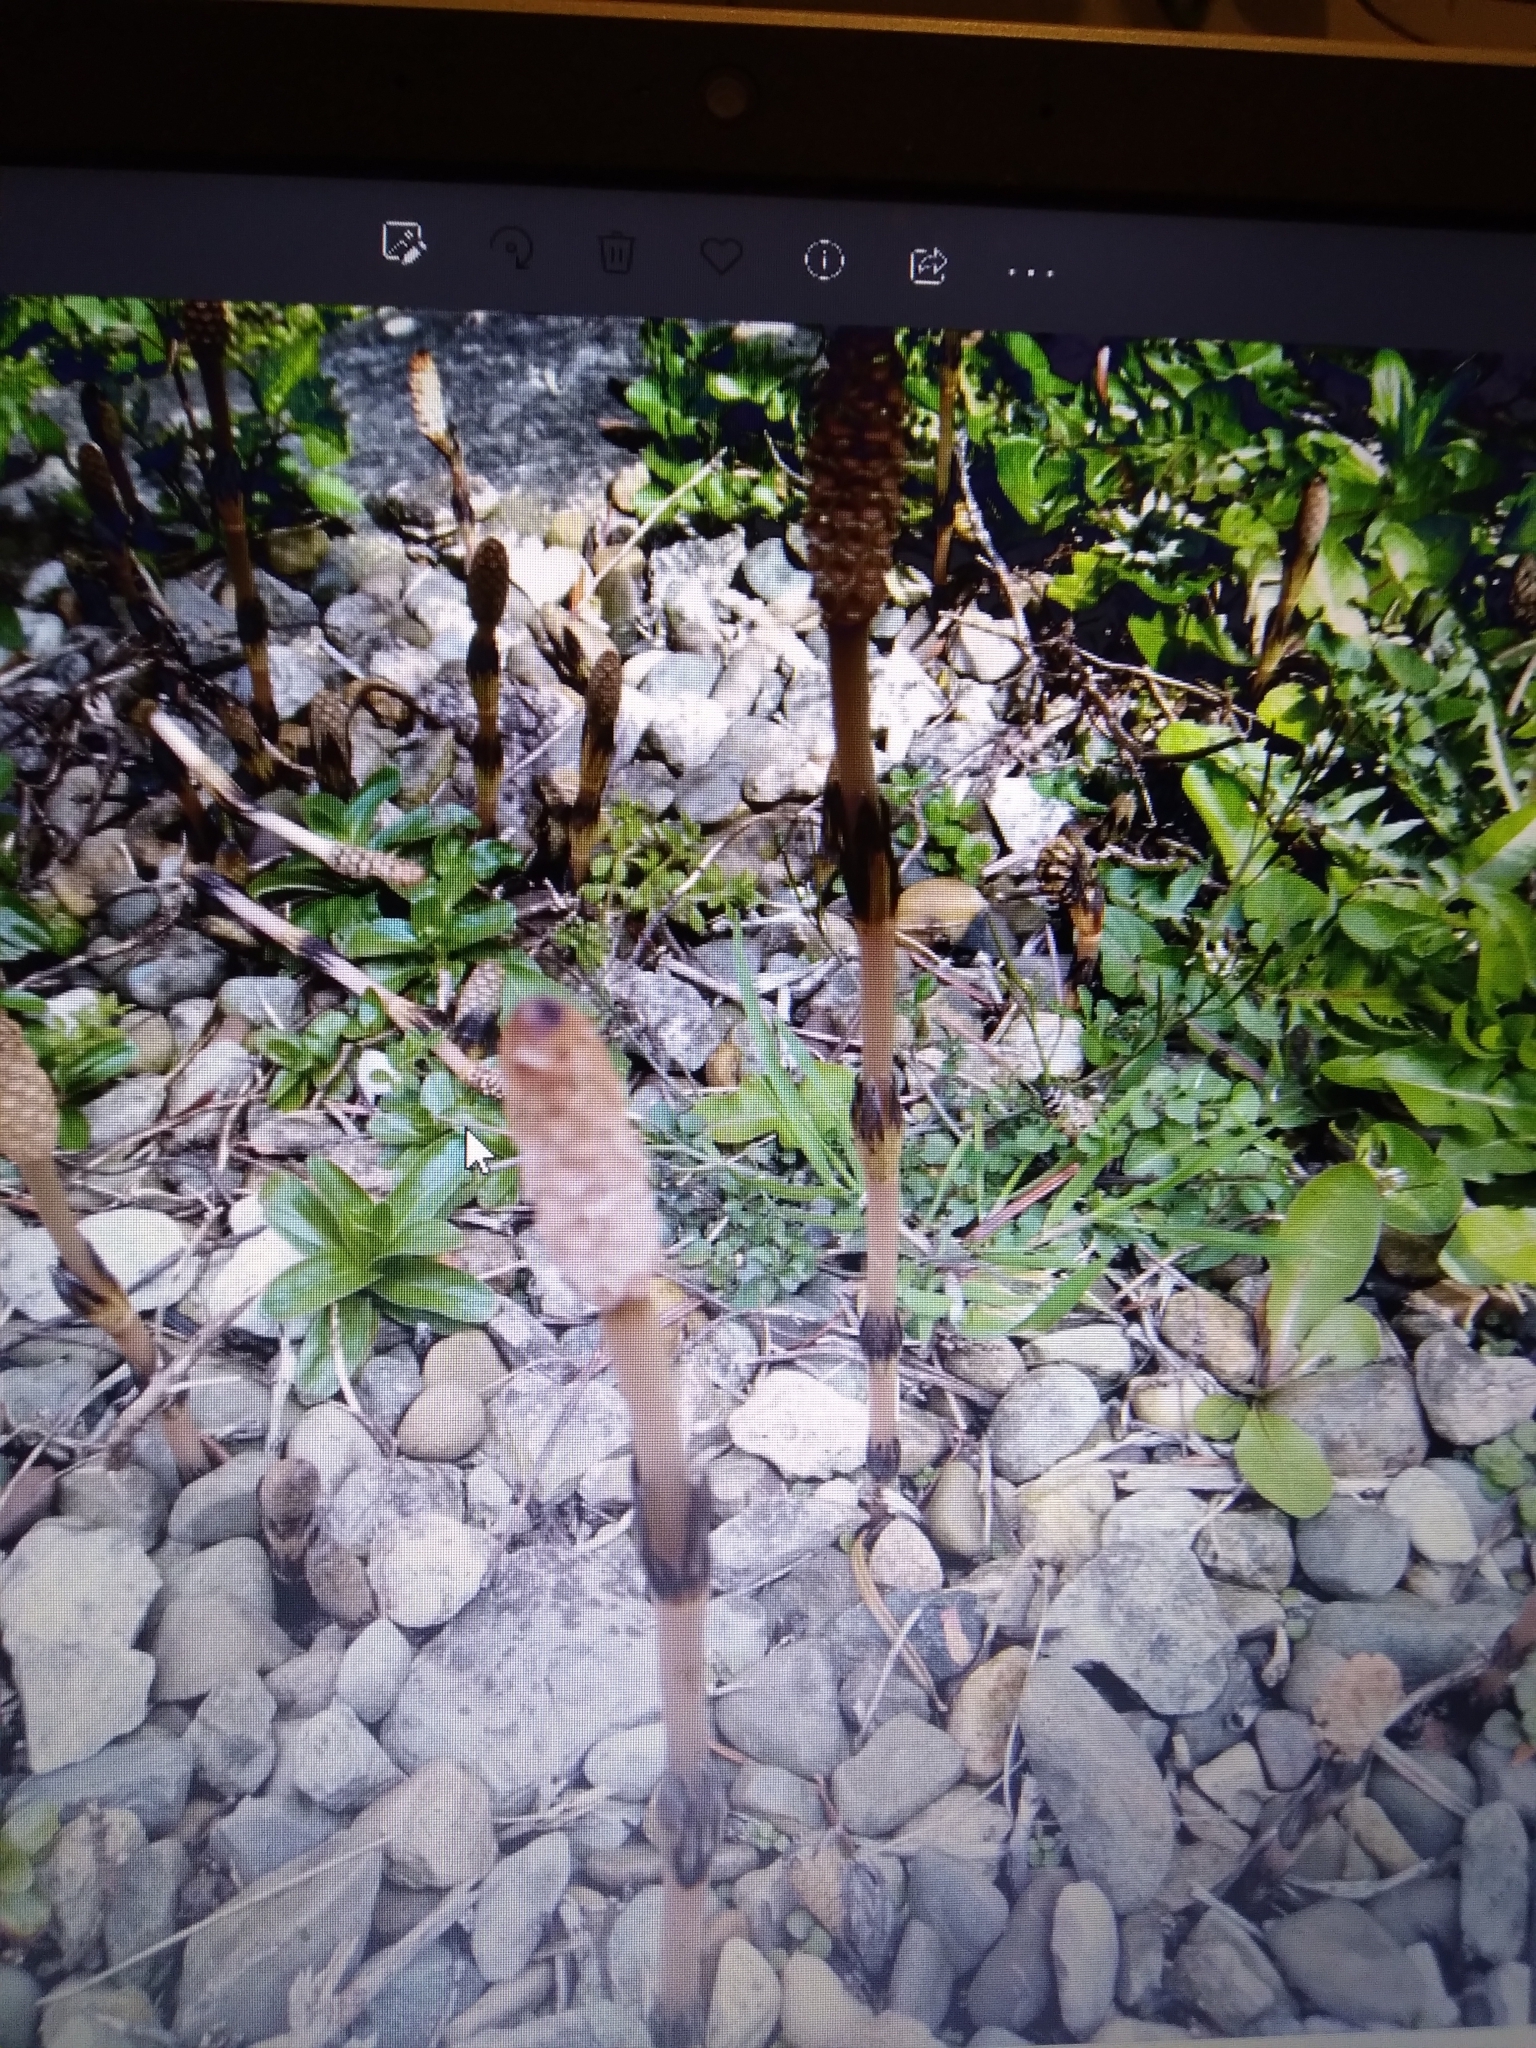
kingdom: Plantae
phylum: Tracheophyta
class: Polypodiopsida
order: Equisetales
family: Equisetaceae
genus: Equisetum
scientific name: Equisetum arvense
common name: Field horsetail
